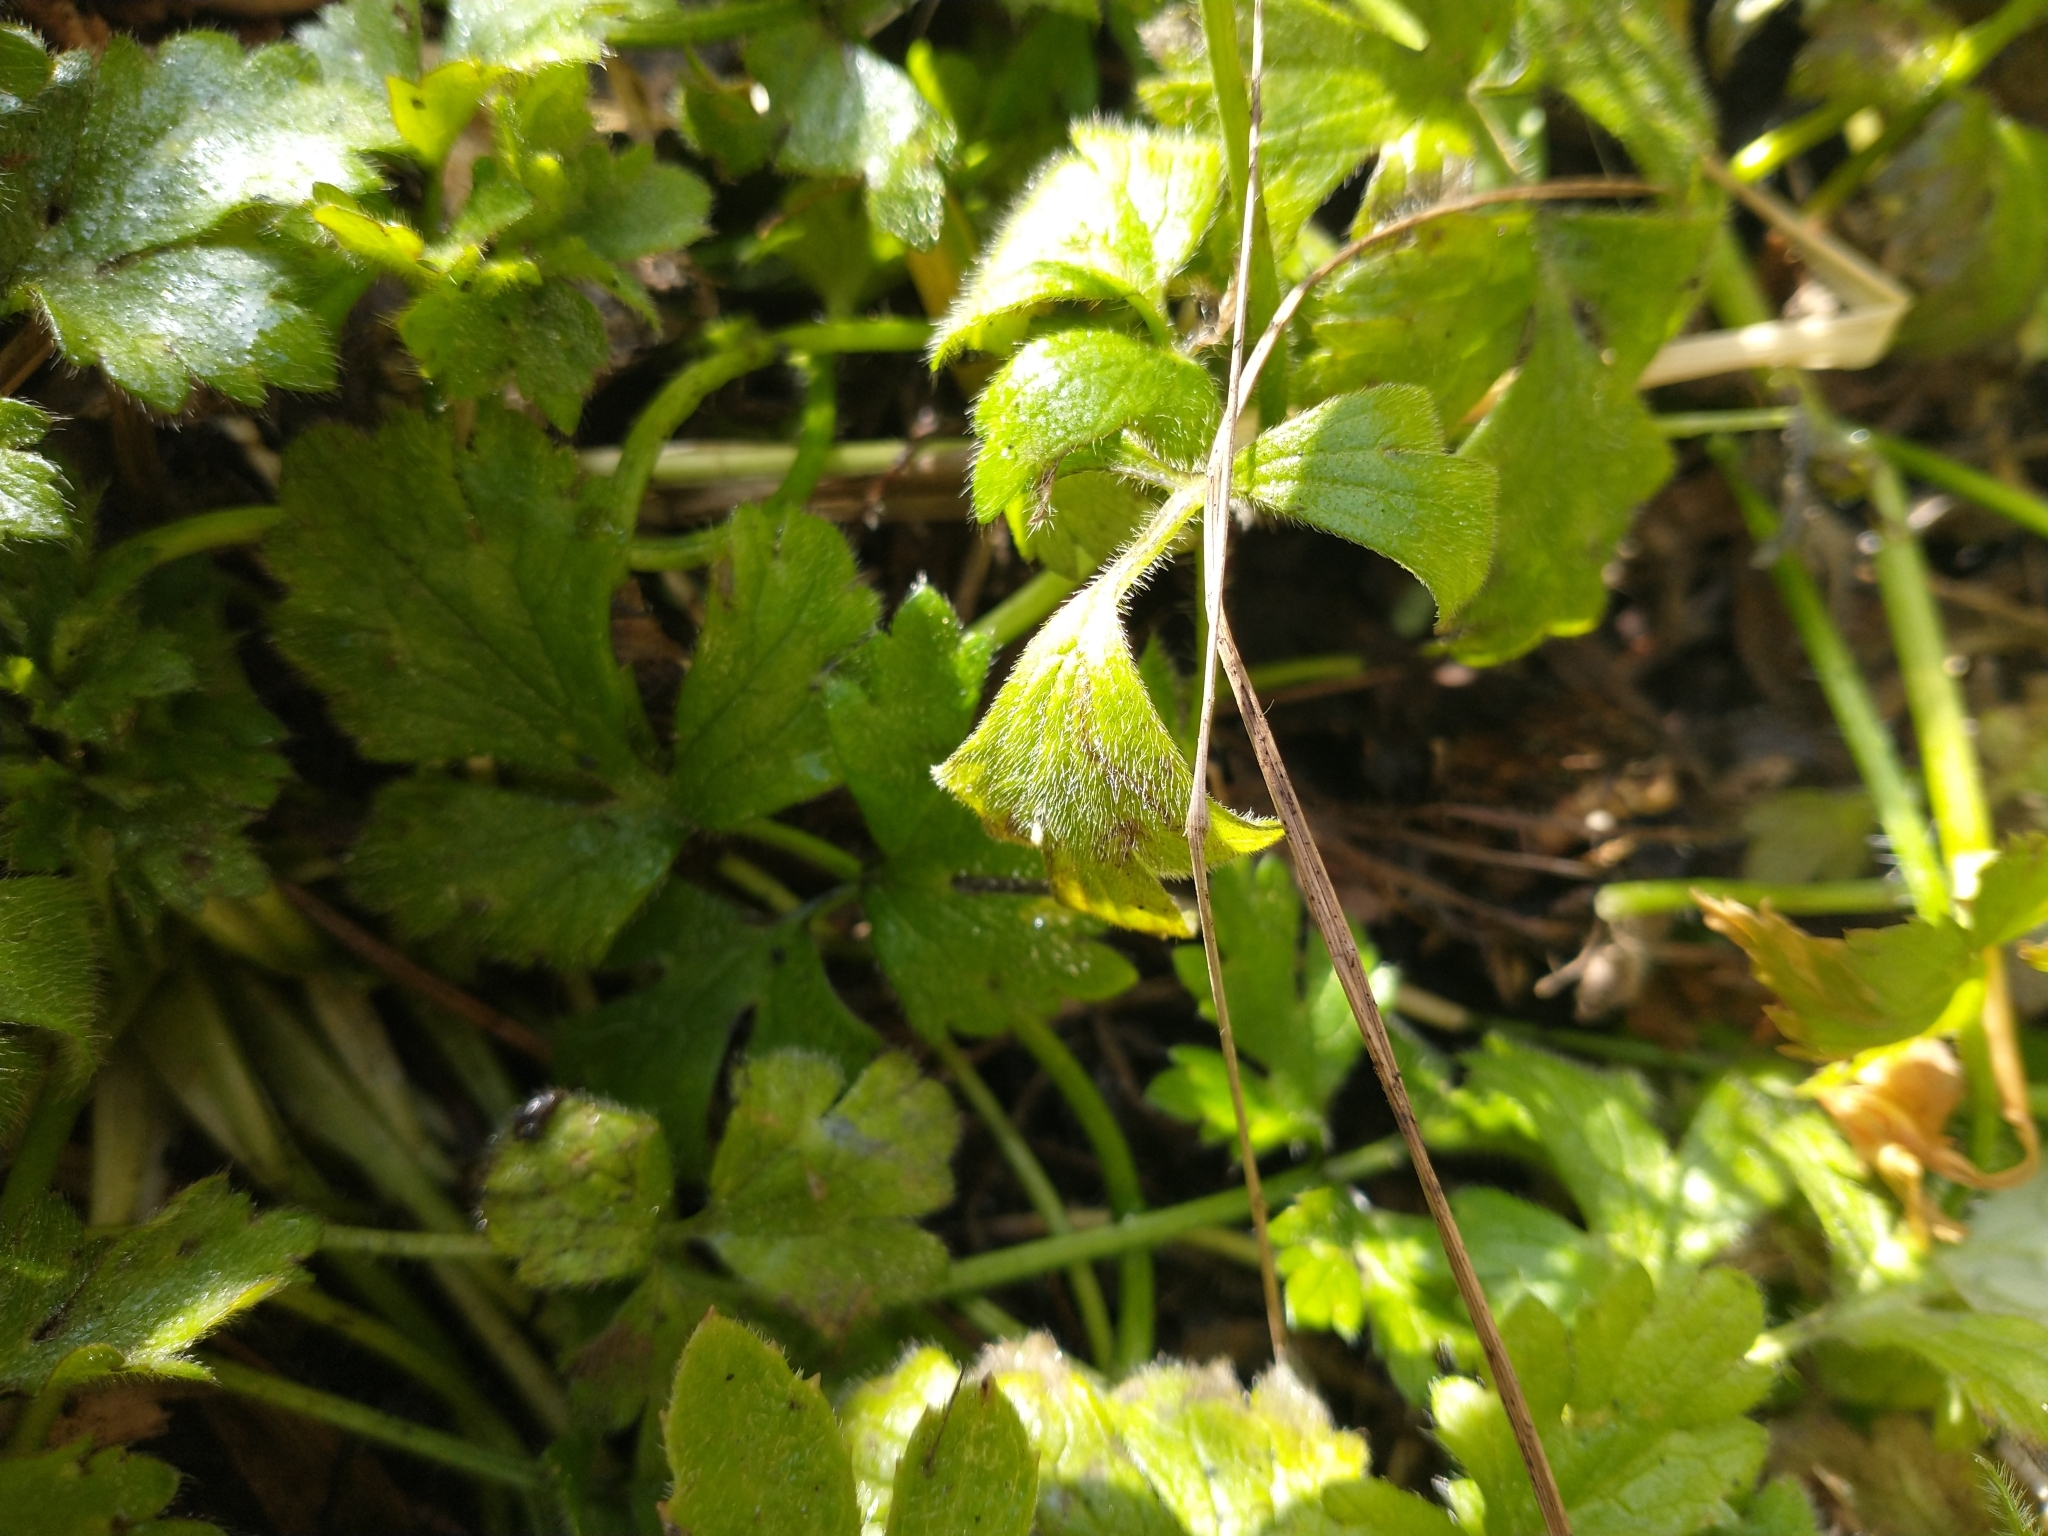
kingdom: Plantae
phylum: Tracheophyta
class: Magnoliopsida
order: Ranunculales
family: Ranunculaceae
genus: Ranunculus
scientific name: Ranunculus repens
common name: Creeping buttercup
